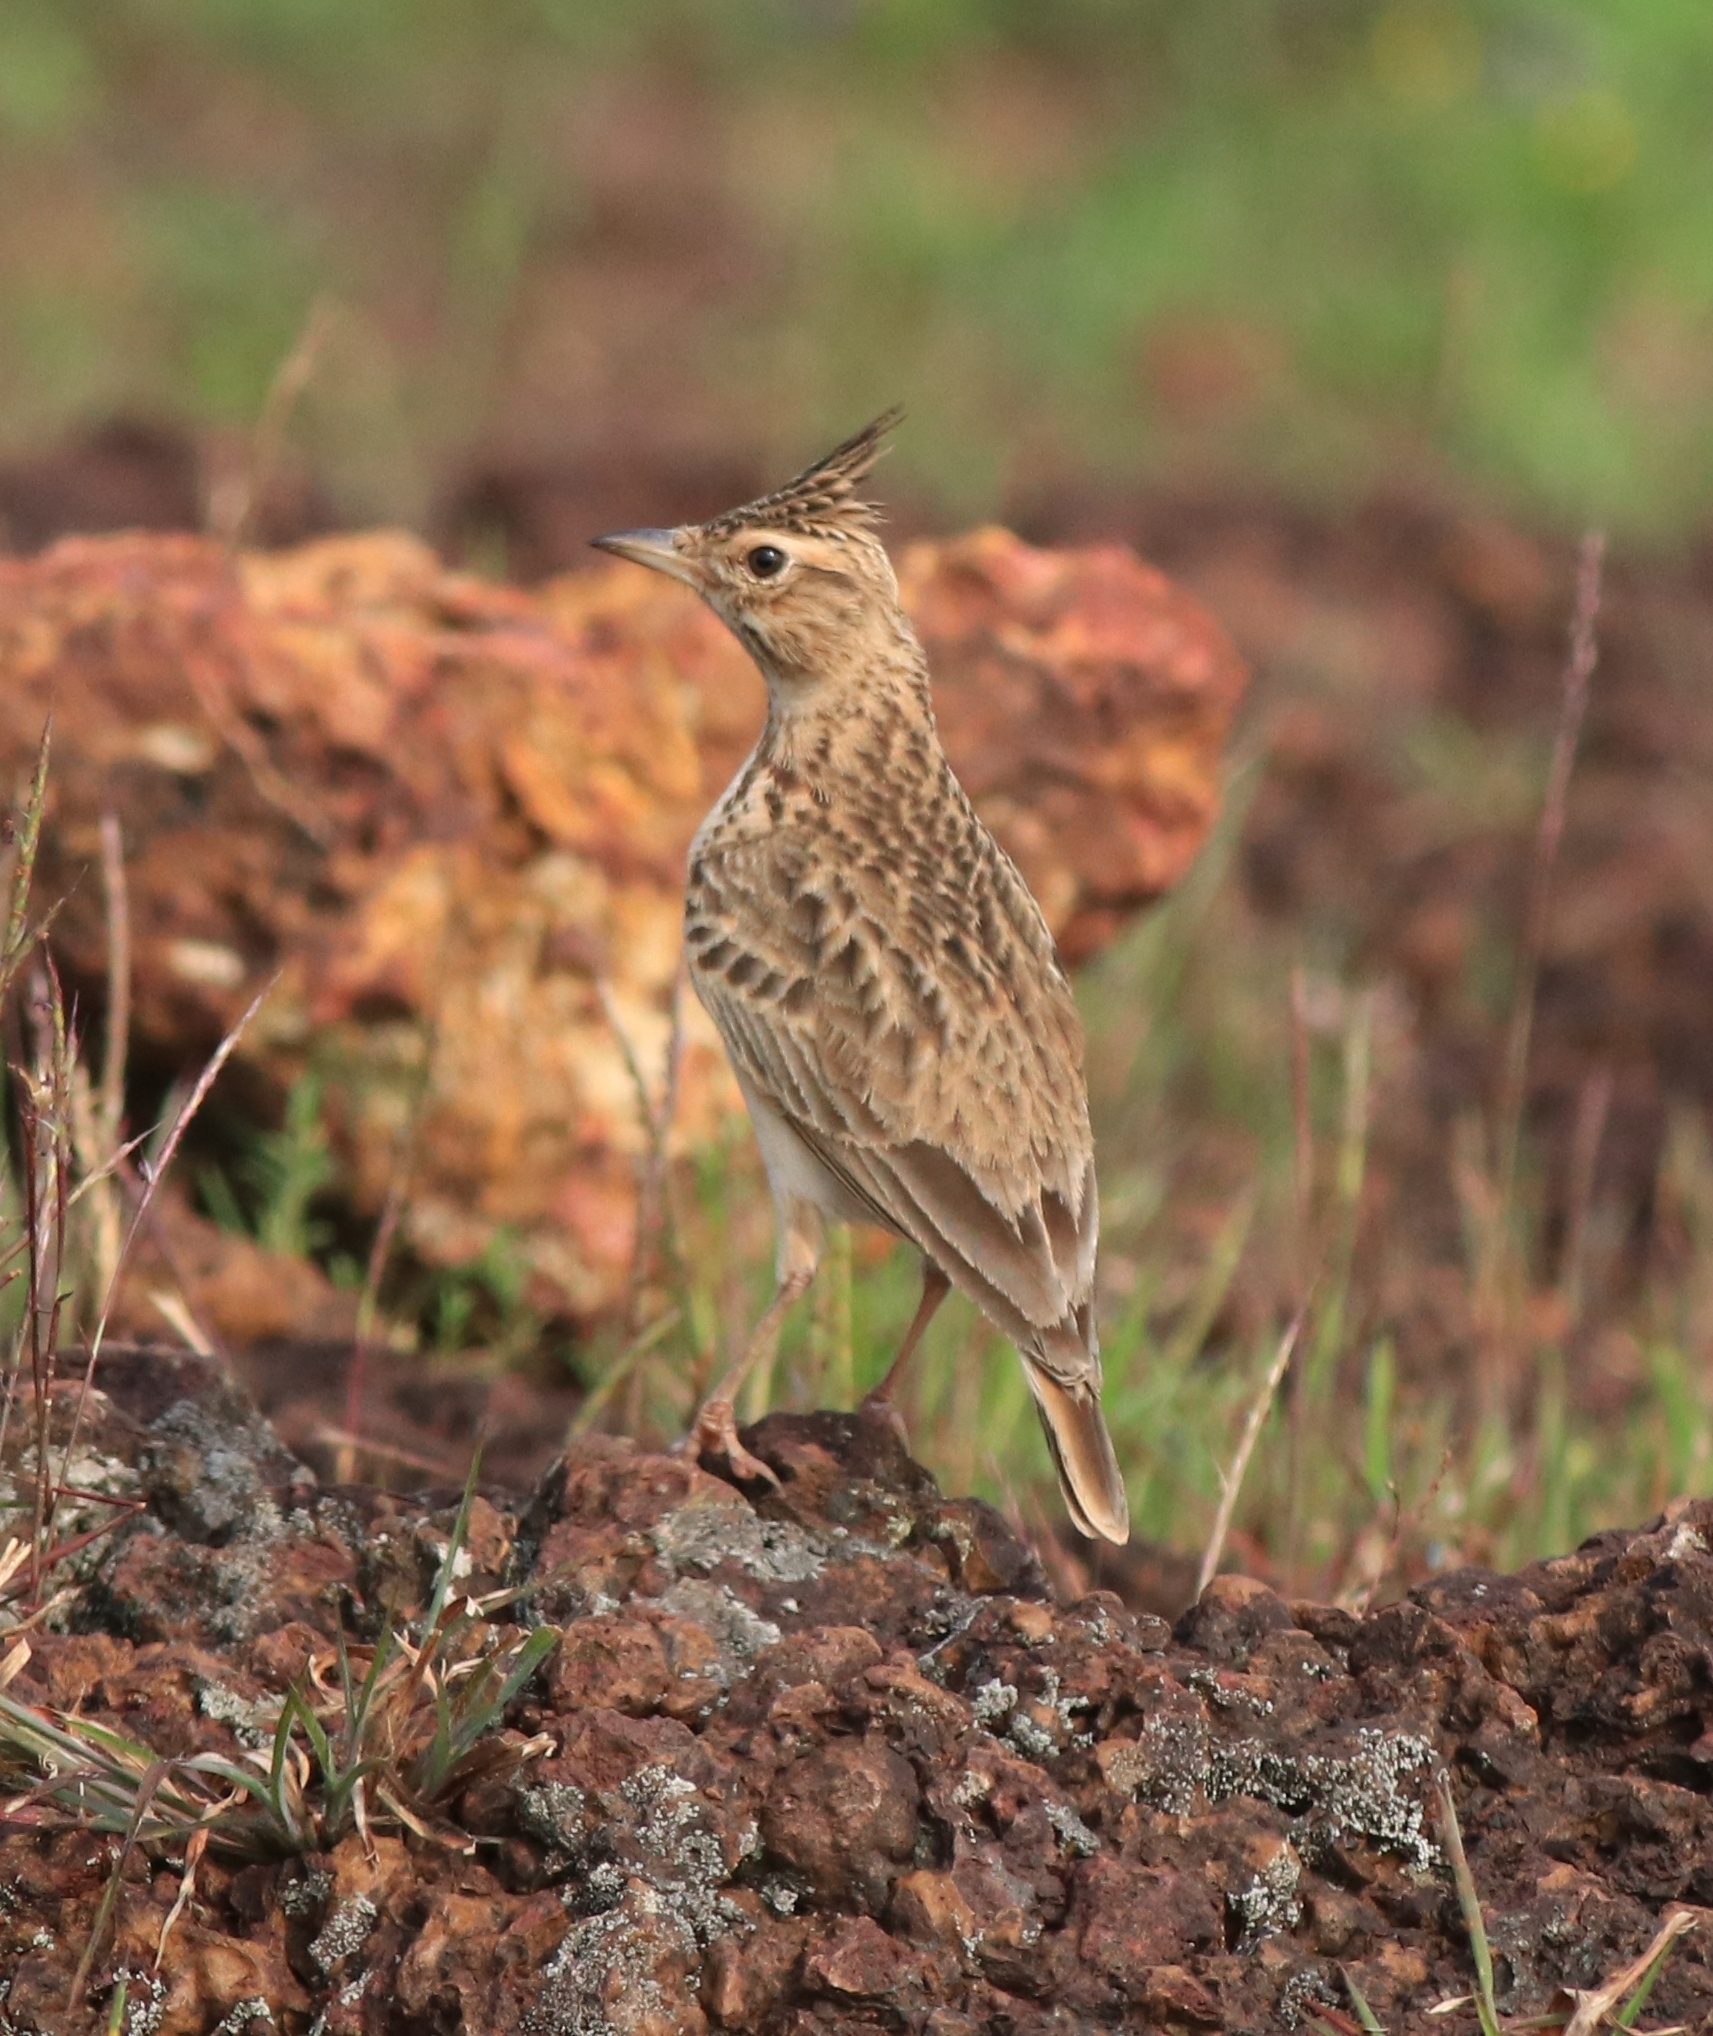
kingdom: Animalia
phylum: Chordata
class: Aves
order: Passeriformes
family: Alaudidae
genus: Galerida
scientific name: Galerida malabarica
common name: Malabar lark
